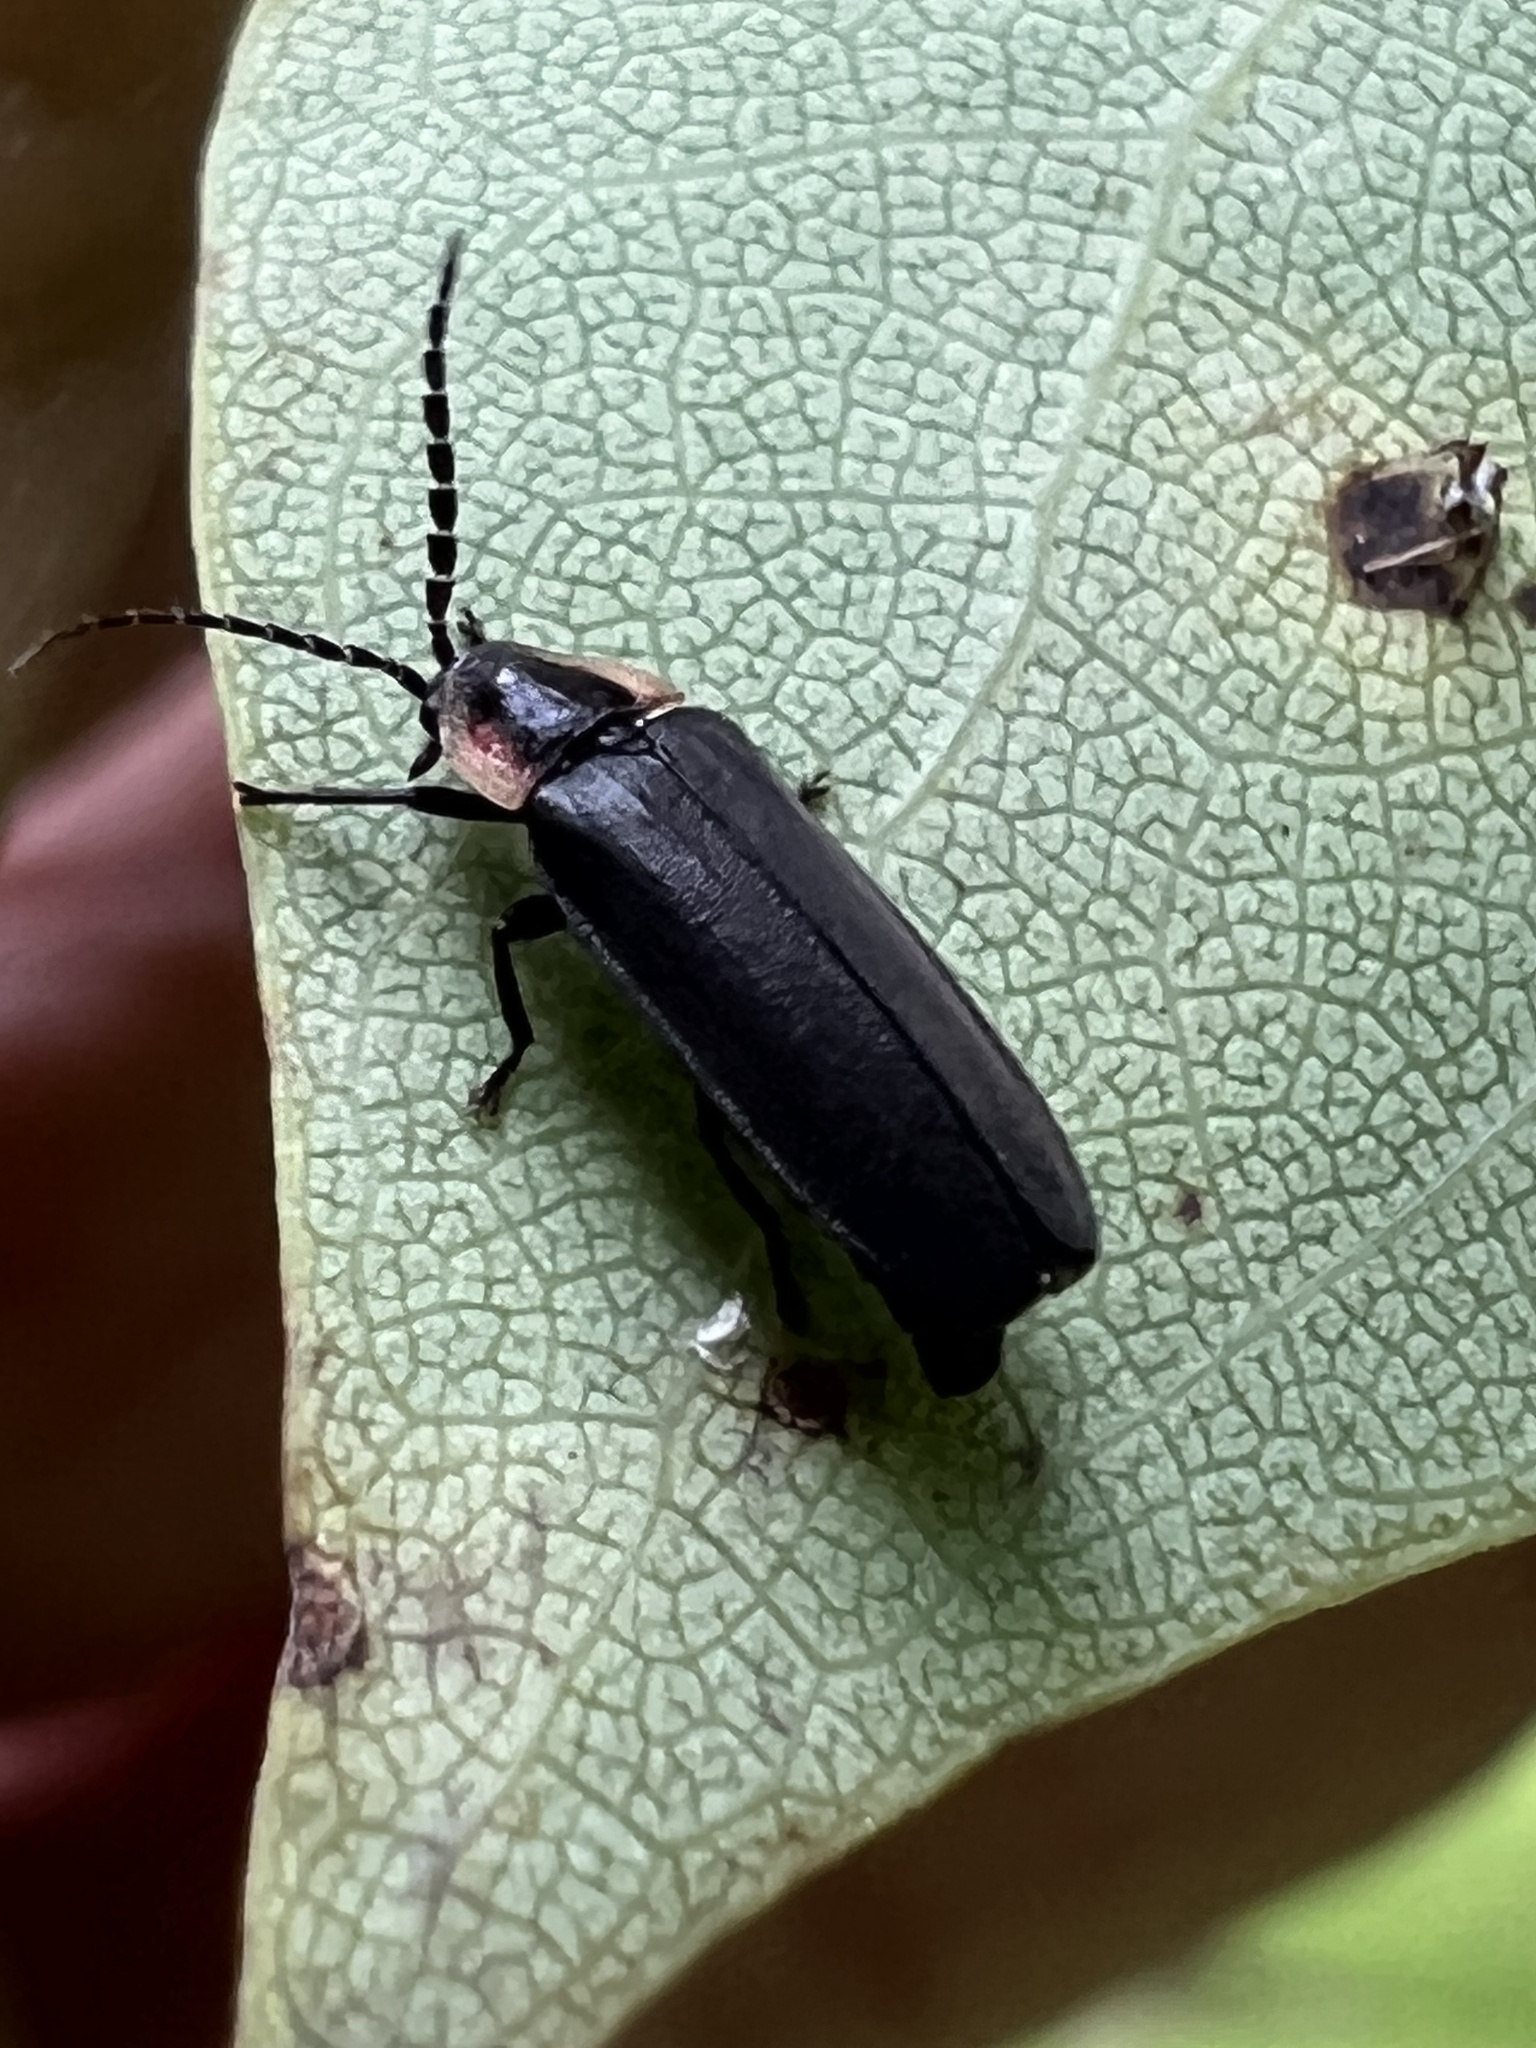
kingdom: Animalia
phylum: Arthropoda
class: Insecta
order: Coleoptera
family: Lampyridae
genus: Lucidota
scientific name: Lucidota atra
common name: Black firefly
